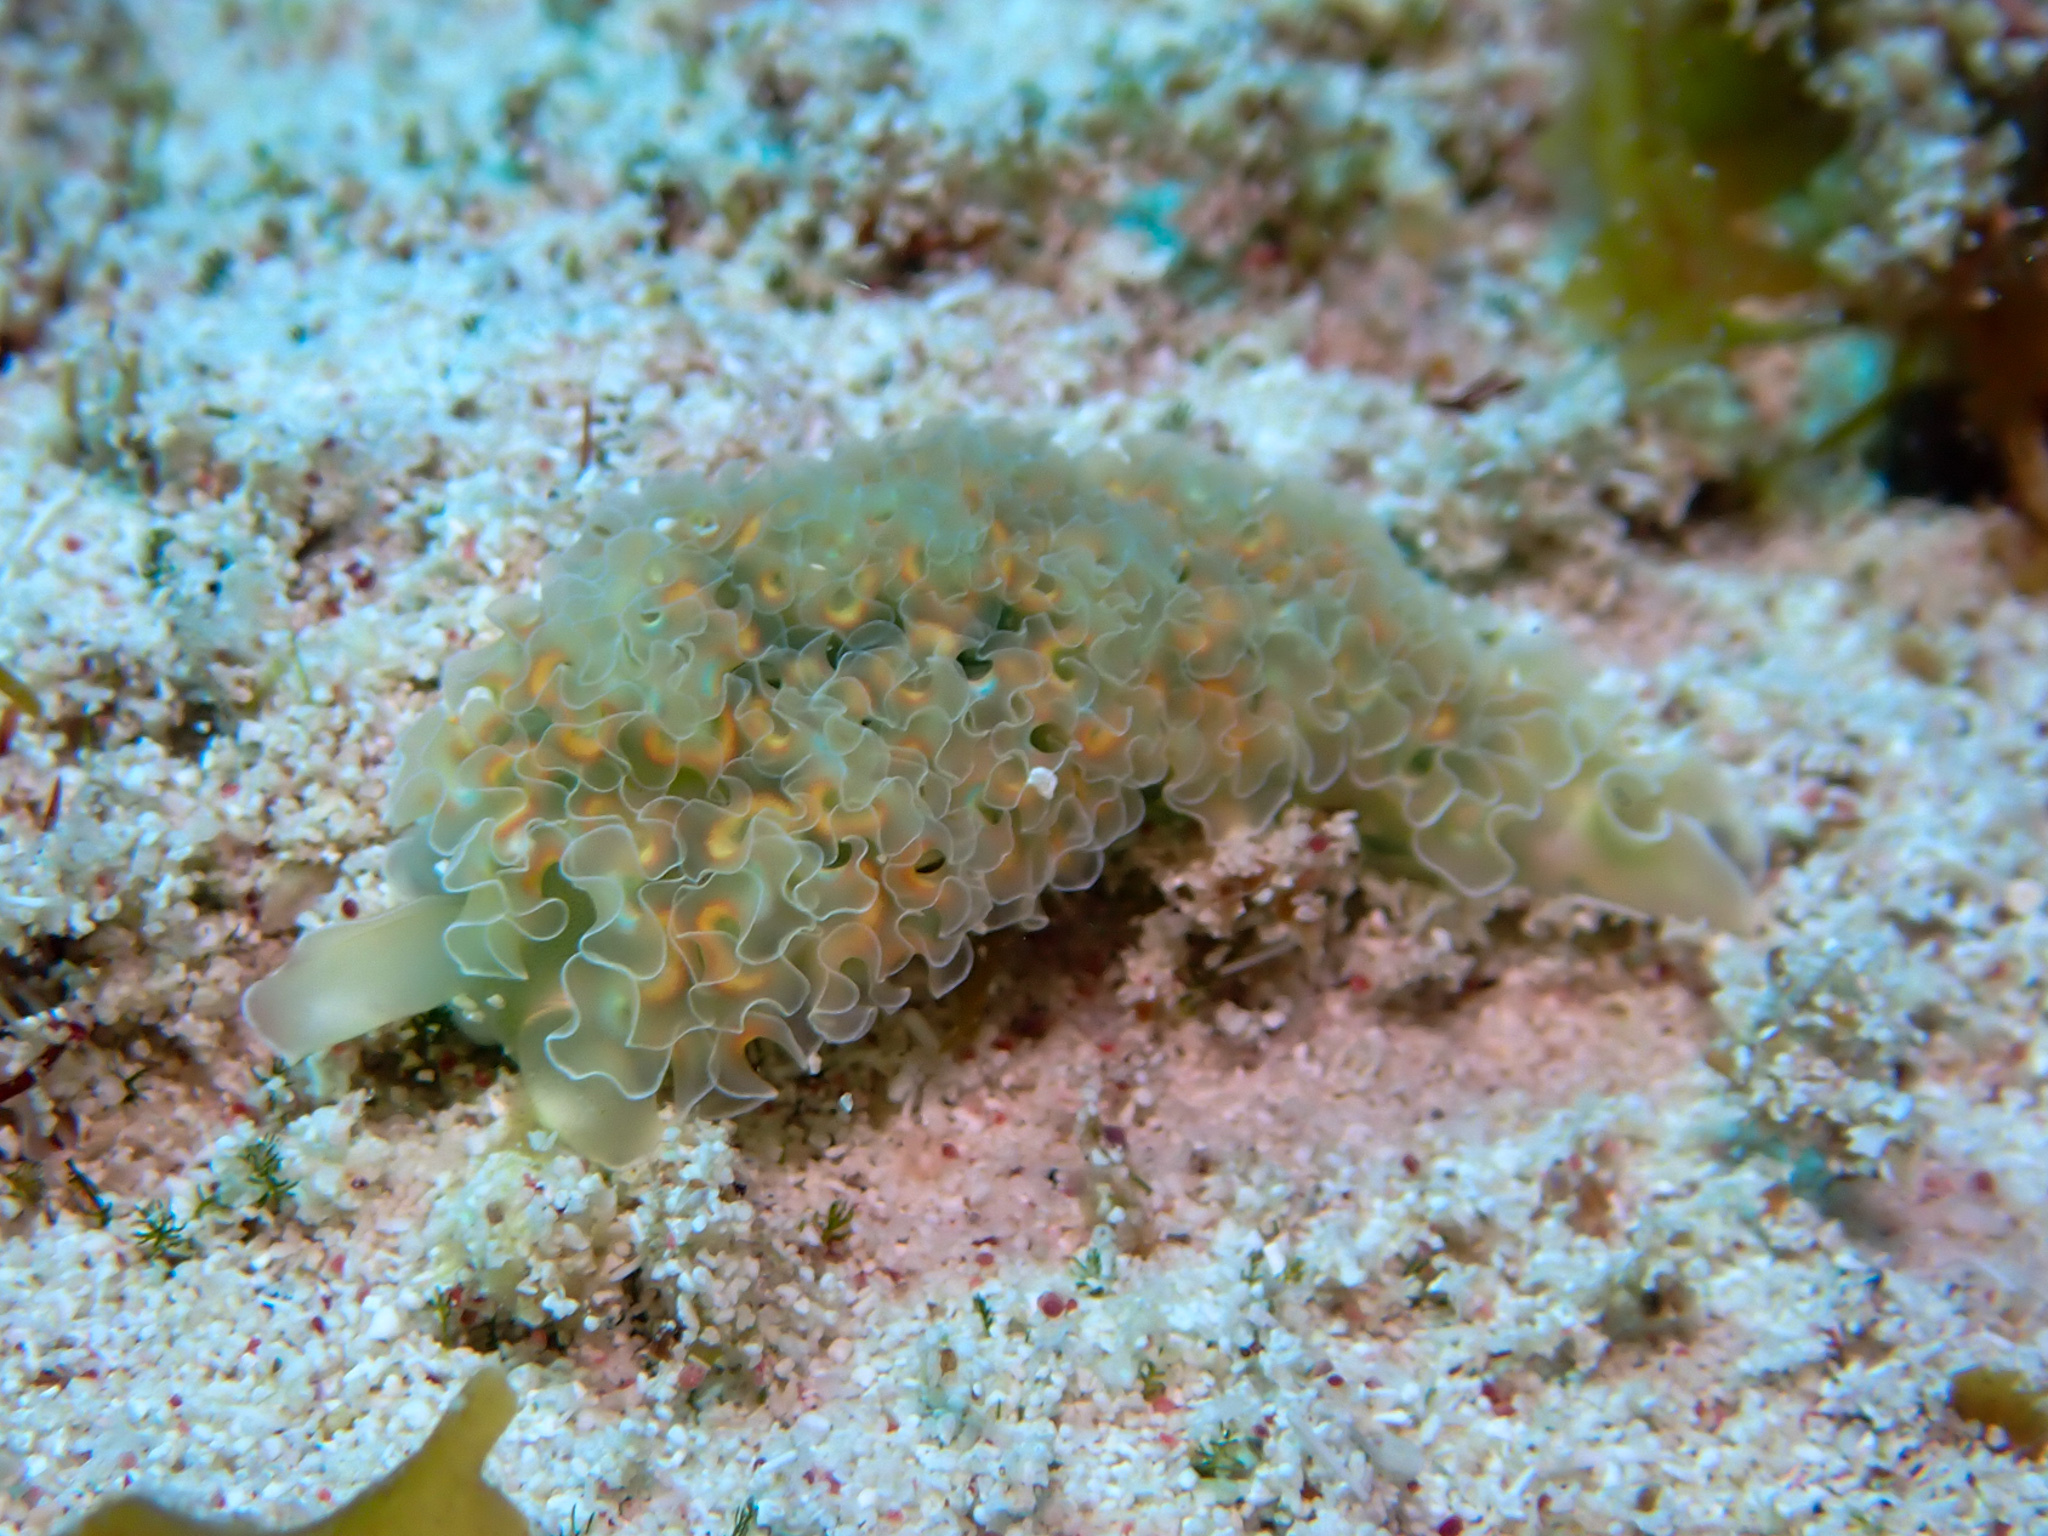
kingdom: Animalia
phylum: Mollusca
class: Gastropoda
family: Plakobranchidae
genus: Elysia
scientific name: Elysia crispata
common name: Lettuce slug
